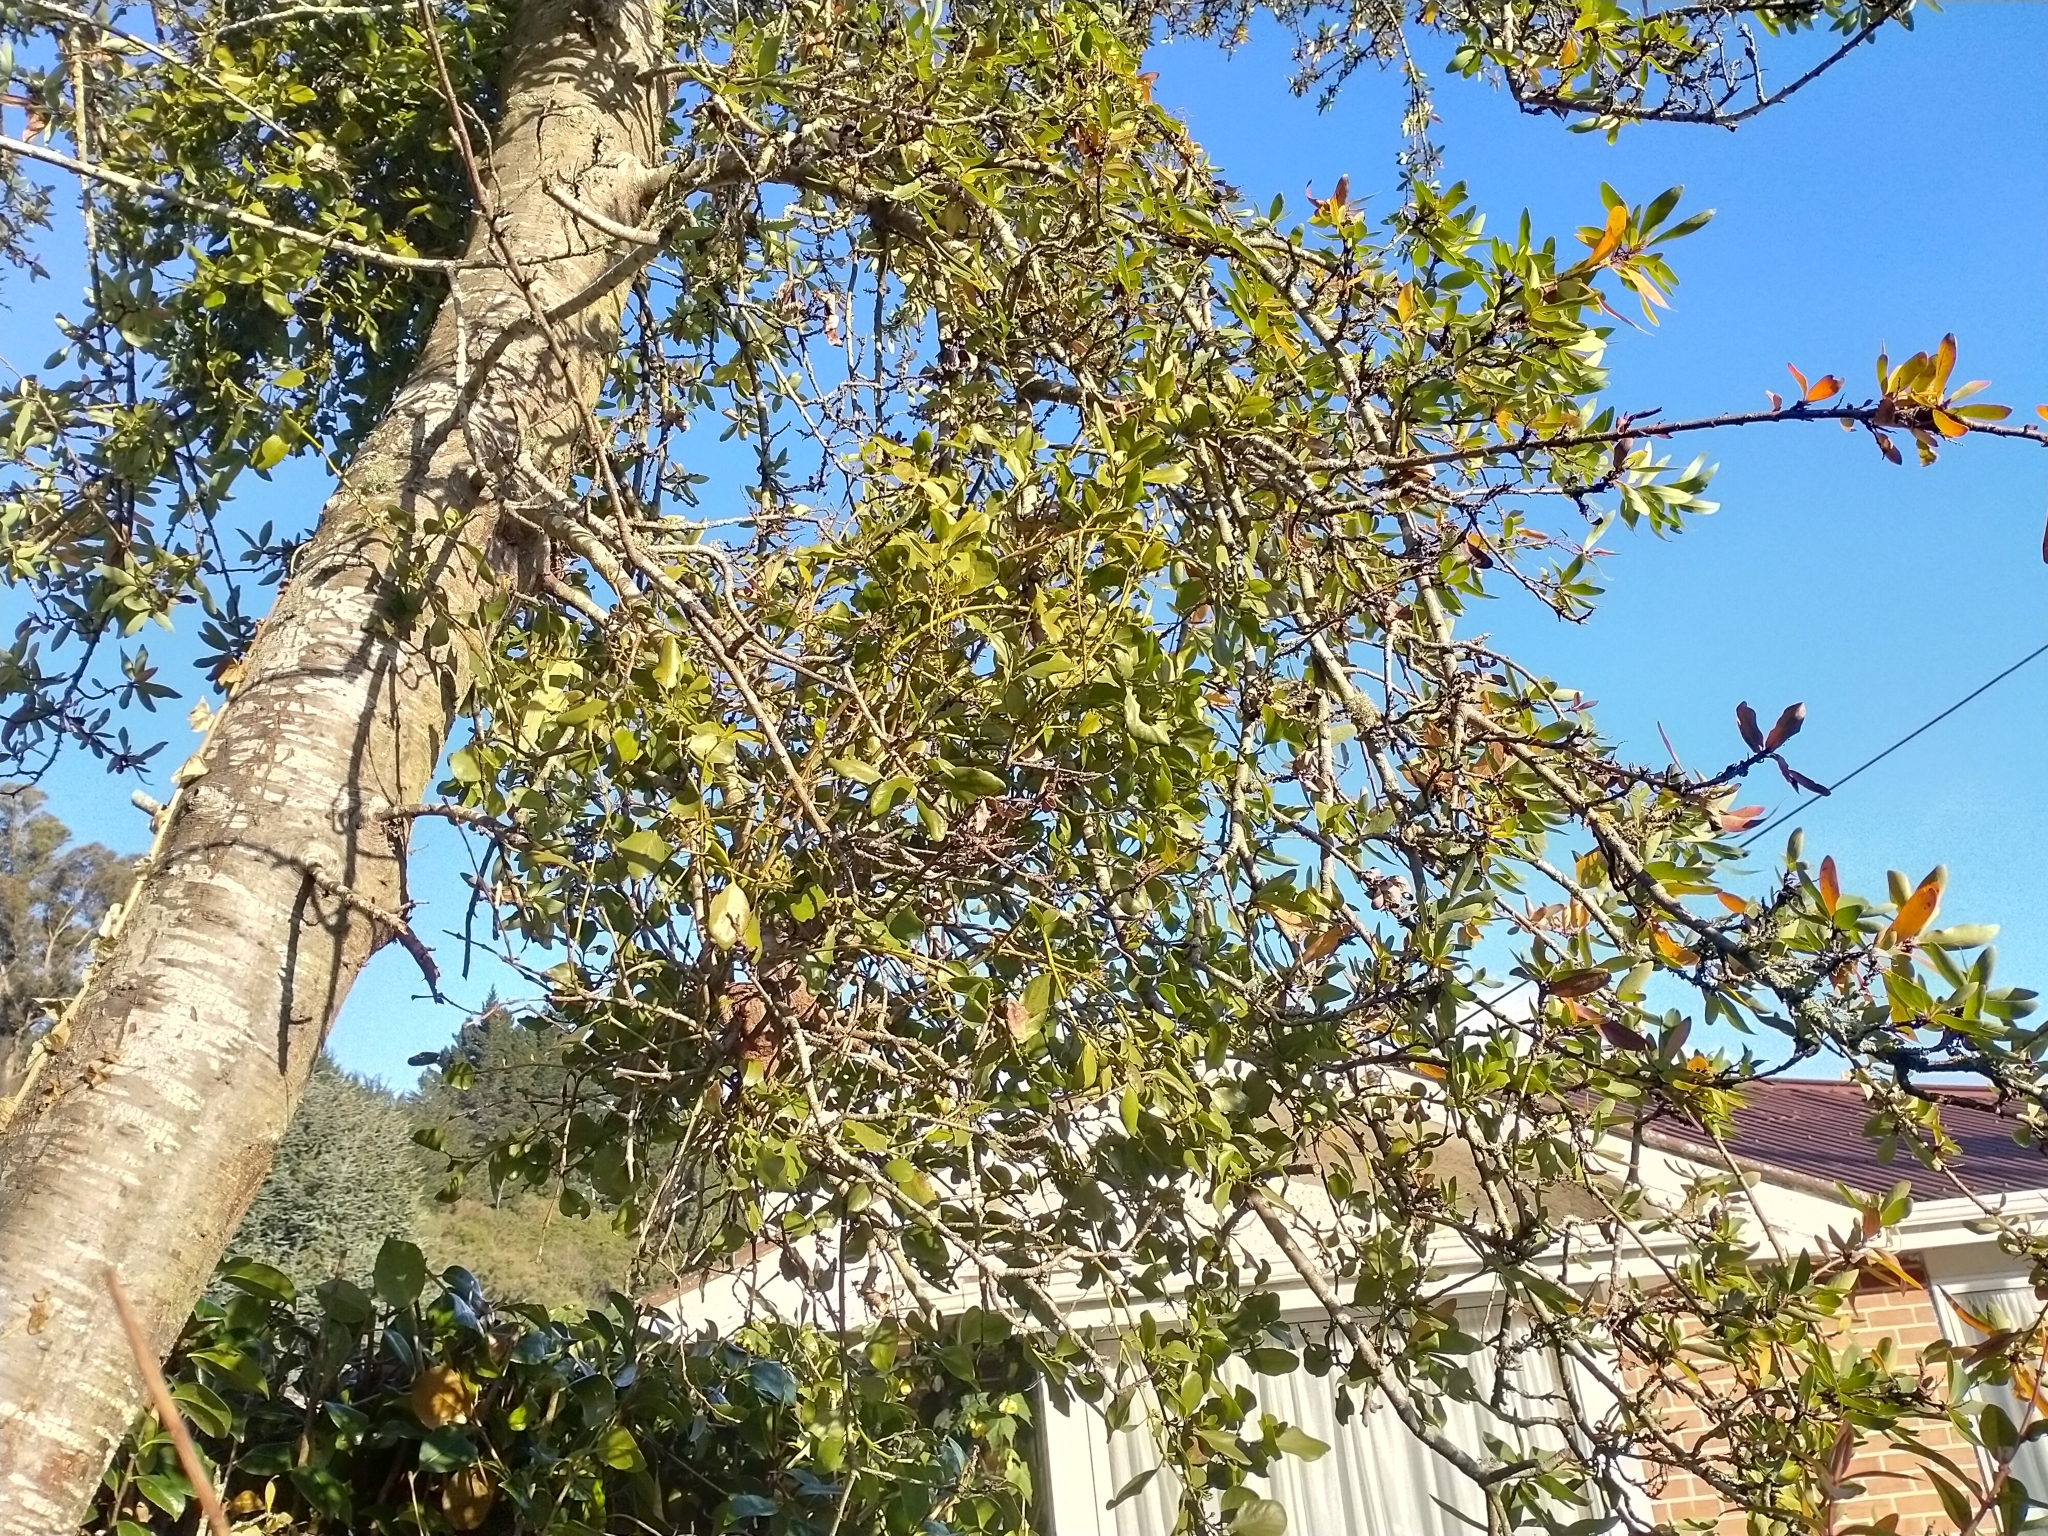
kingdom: Plantae
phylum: Tracheophyta
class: Magnoliopsida
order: Santalales
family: Loranthaceae
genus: Ileostylus
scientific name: Ileostylus micranthus
